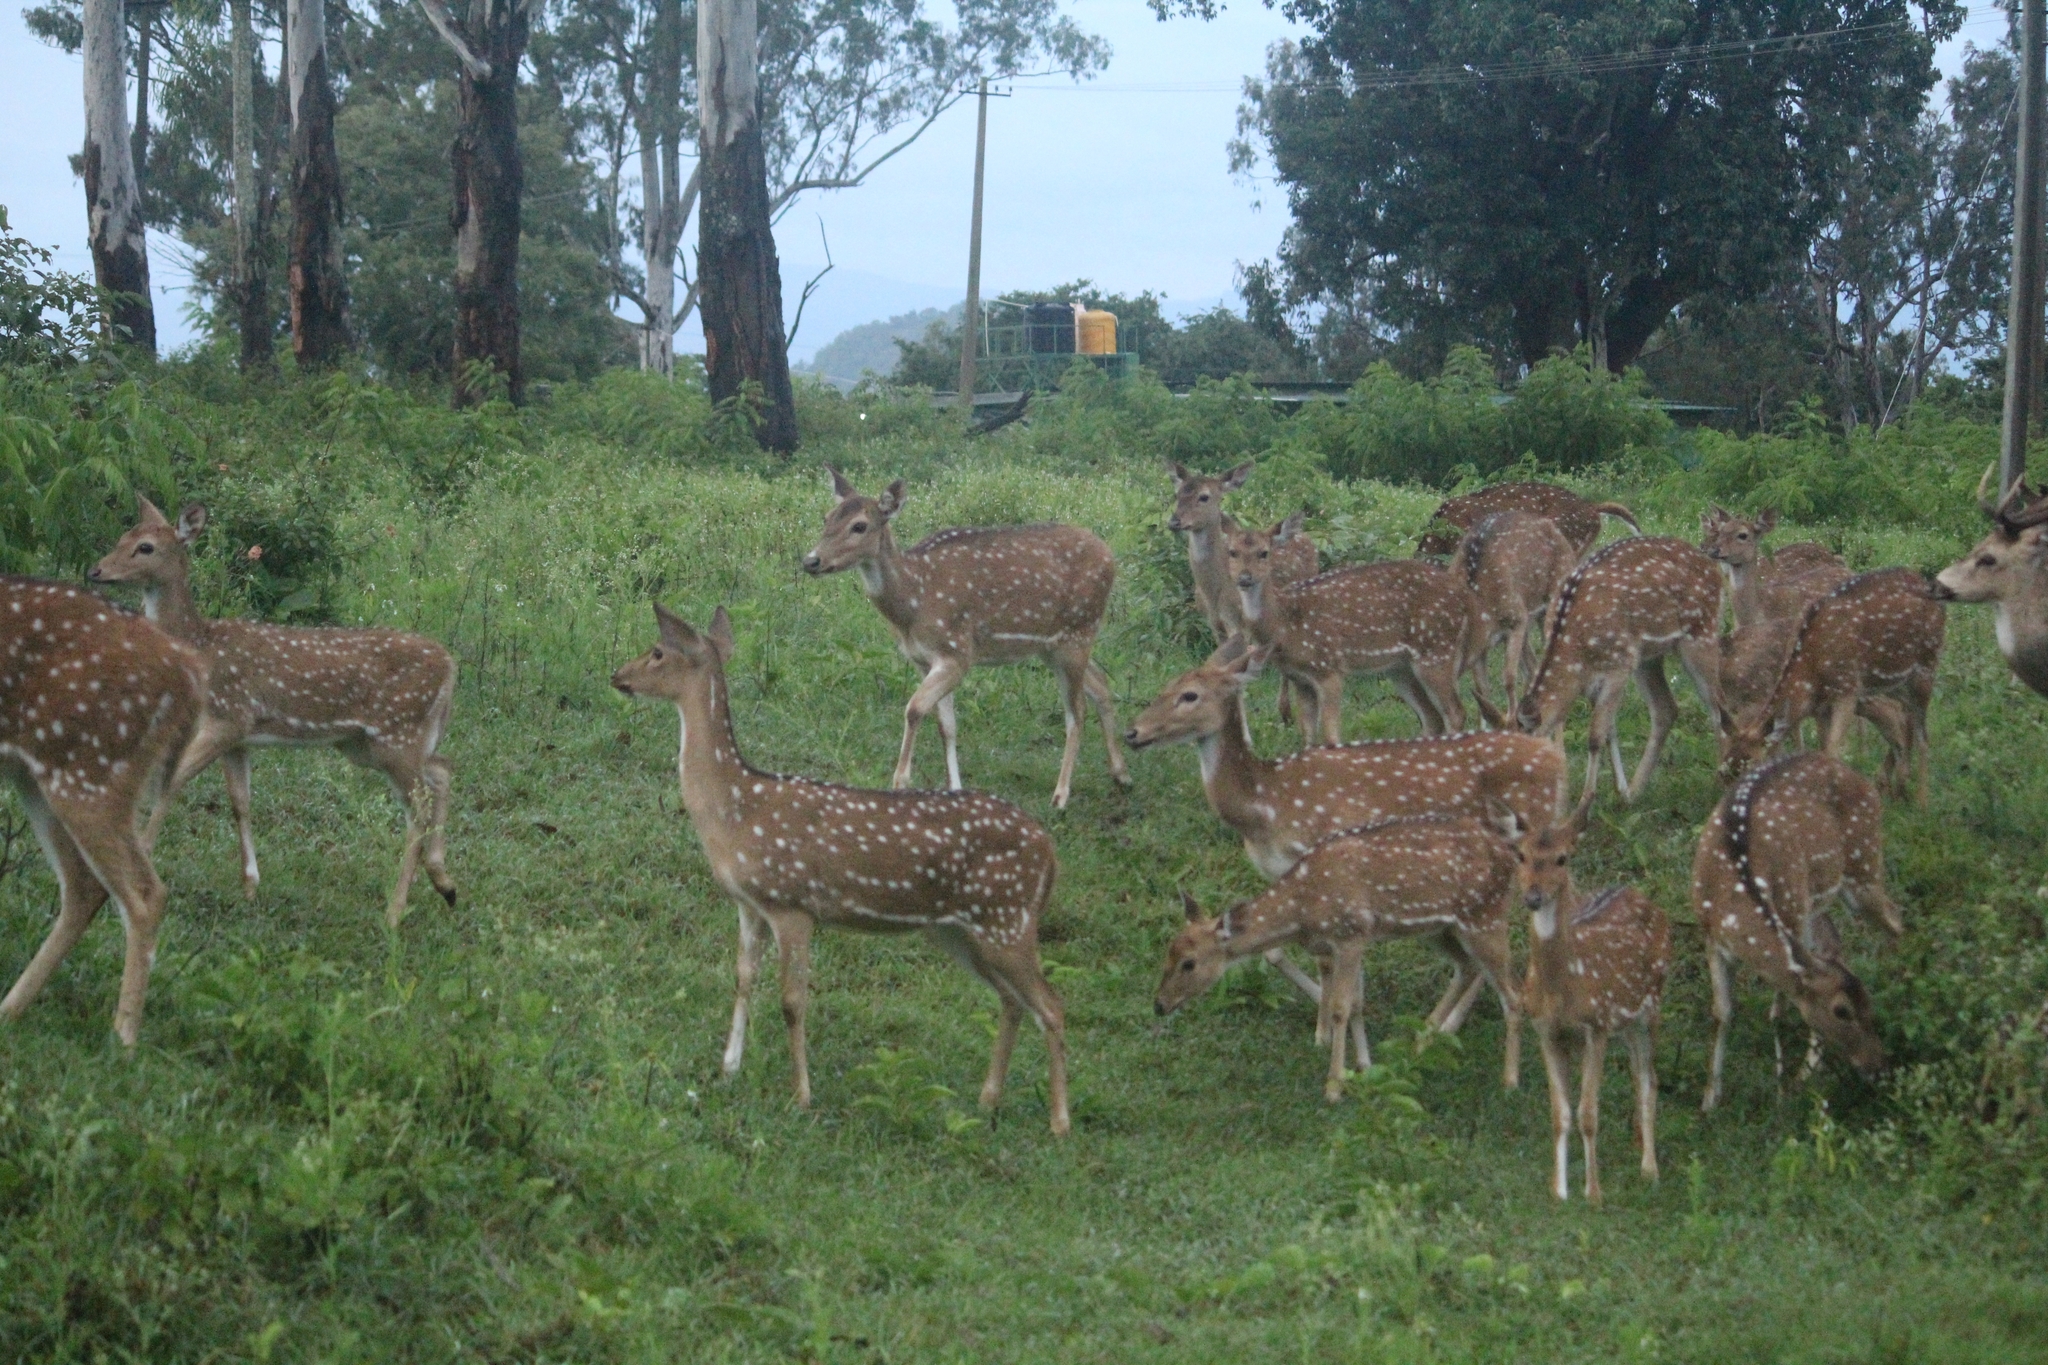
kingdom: Animalia
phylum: Chordata
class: Mammalia
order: Artiodactyla
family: Cervidae
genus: Axis
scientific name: Axis axis
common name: Chital
